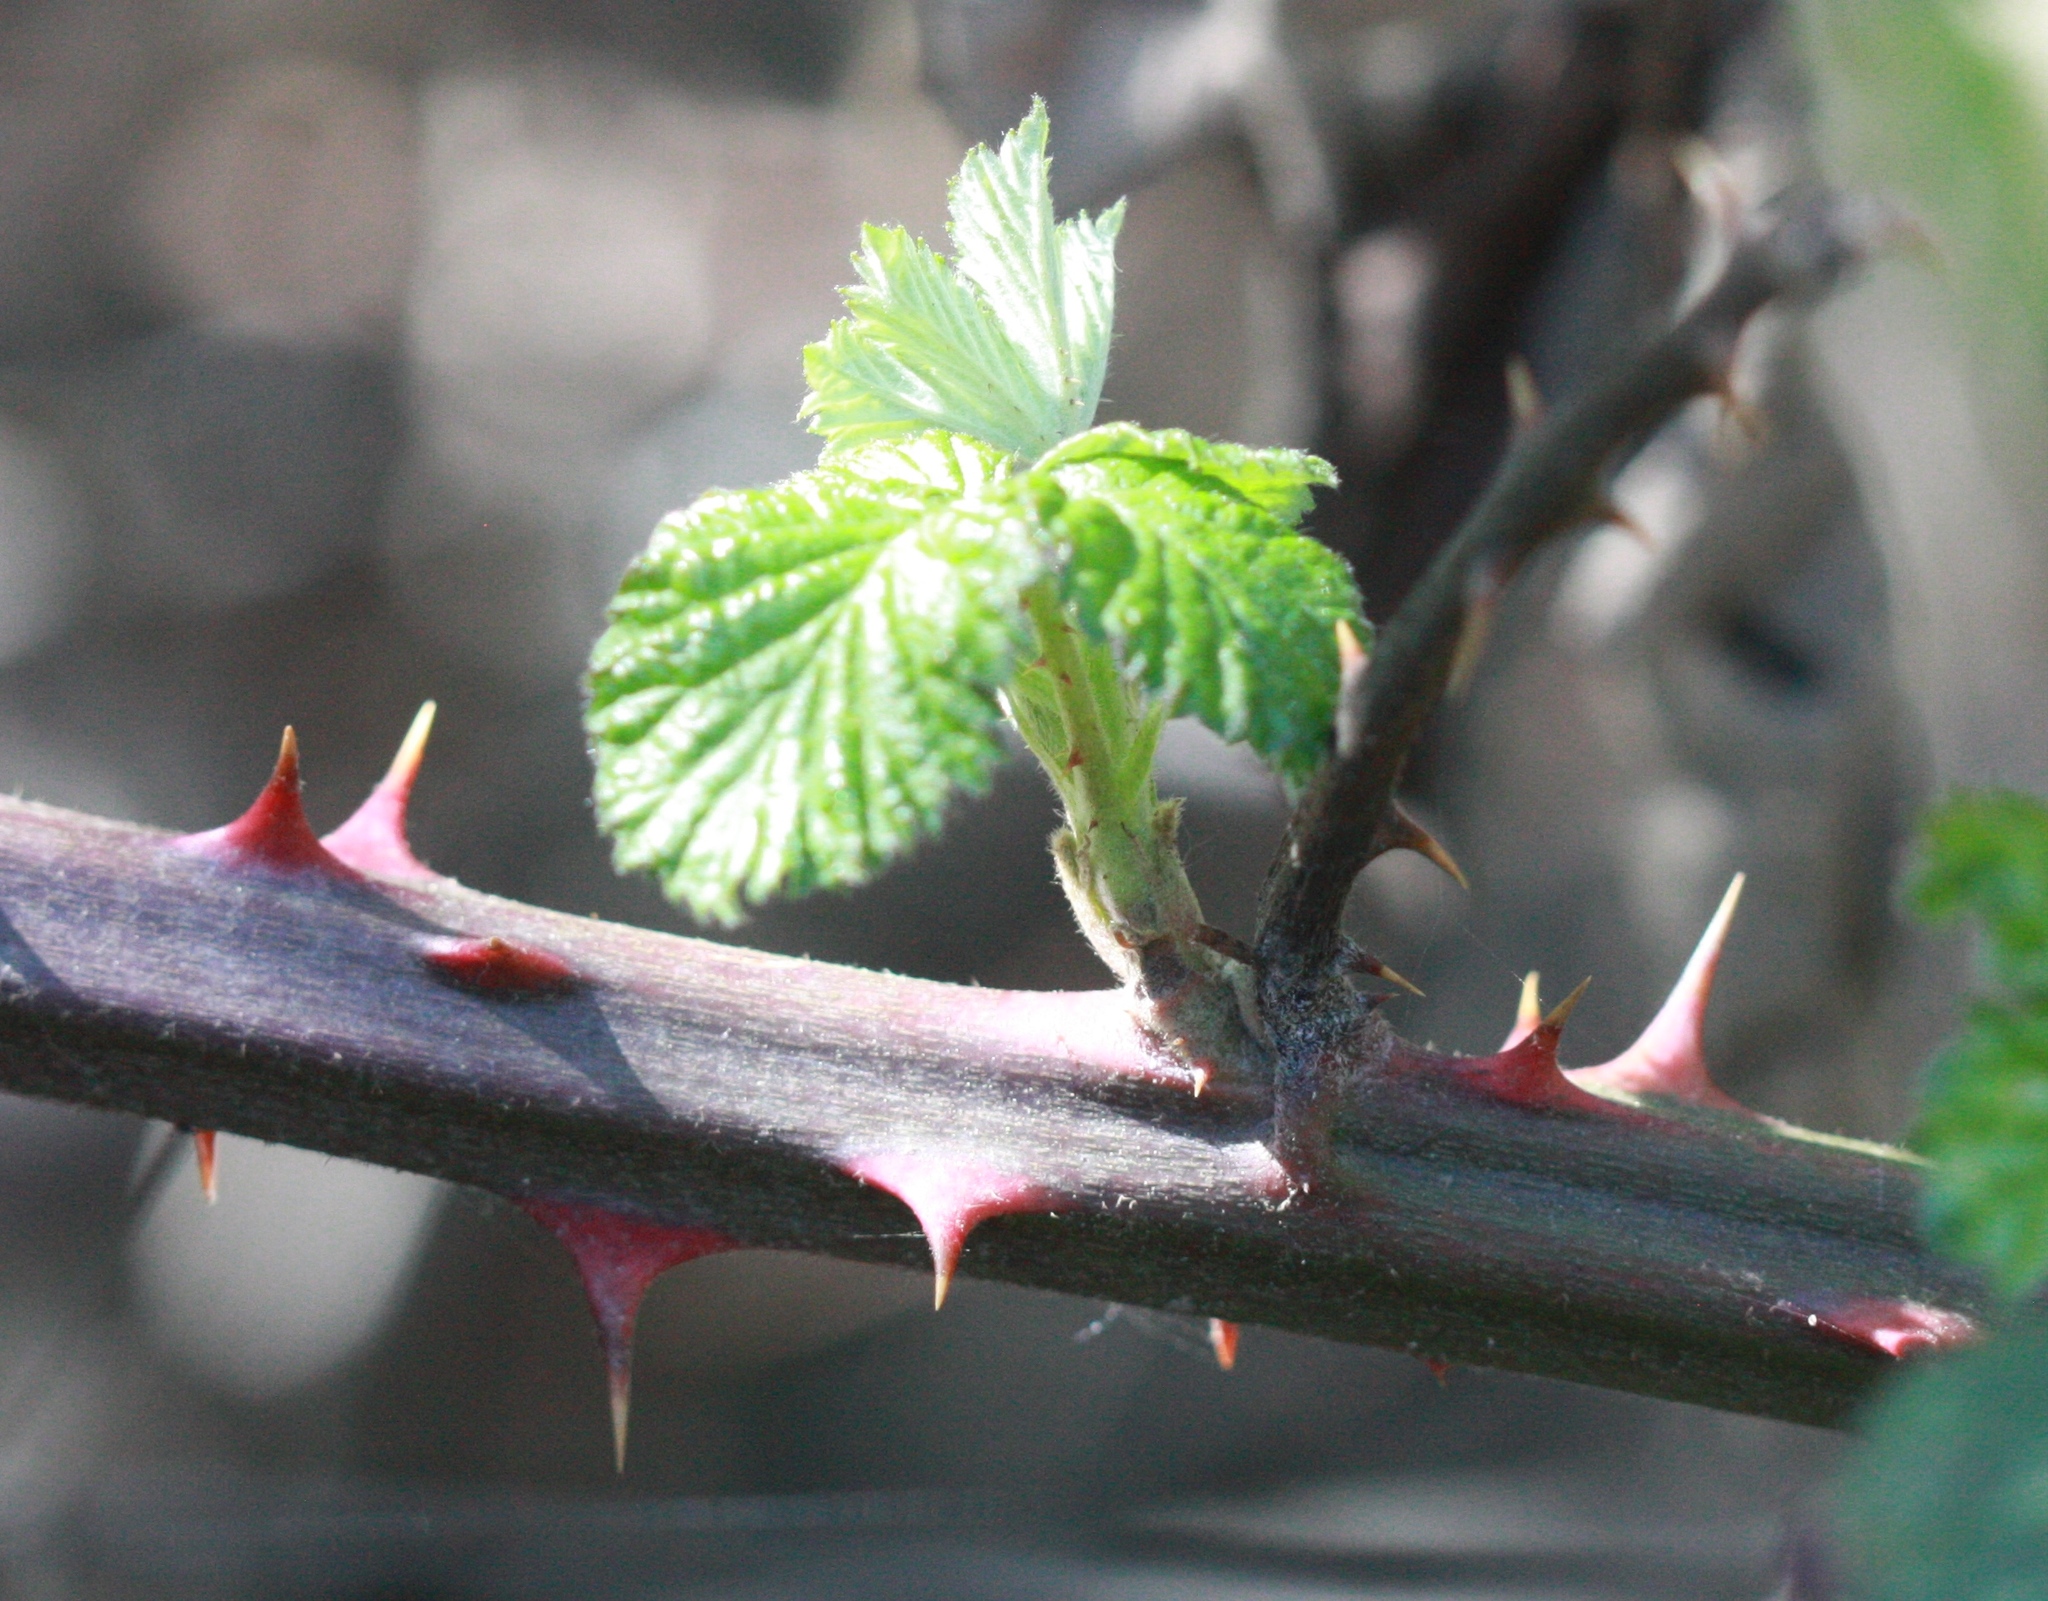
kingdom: Plantae
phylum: Tracheophyta
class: Magnoliopsida
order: Rosales
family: Rosaceae
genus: Rubus
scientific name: Rubus armeniacus
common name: Himalayan blackberry
